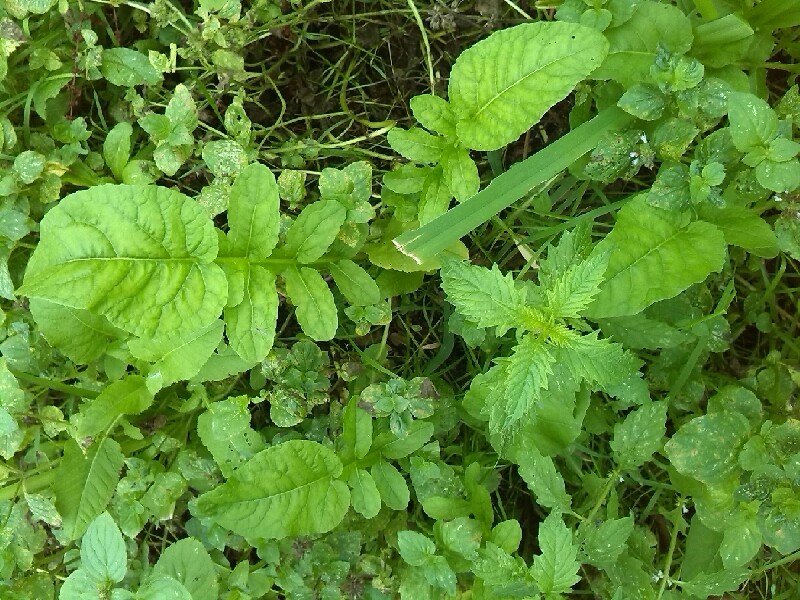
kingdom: Plantae
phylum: Tracheophyta
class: Magnoliopsida
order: Brassicales
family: Brassicaceae
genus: Rorippa
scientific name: Rorippa amphibia
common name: Great yellow-cress
